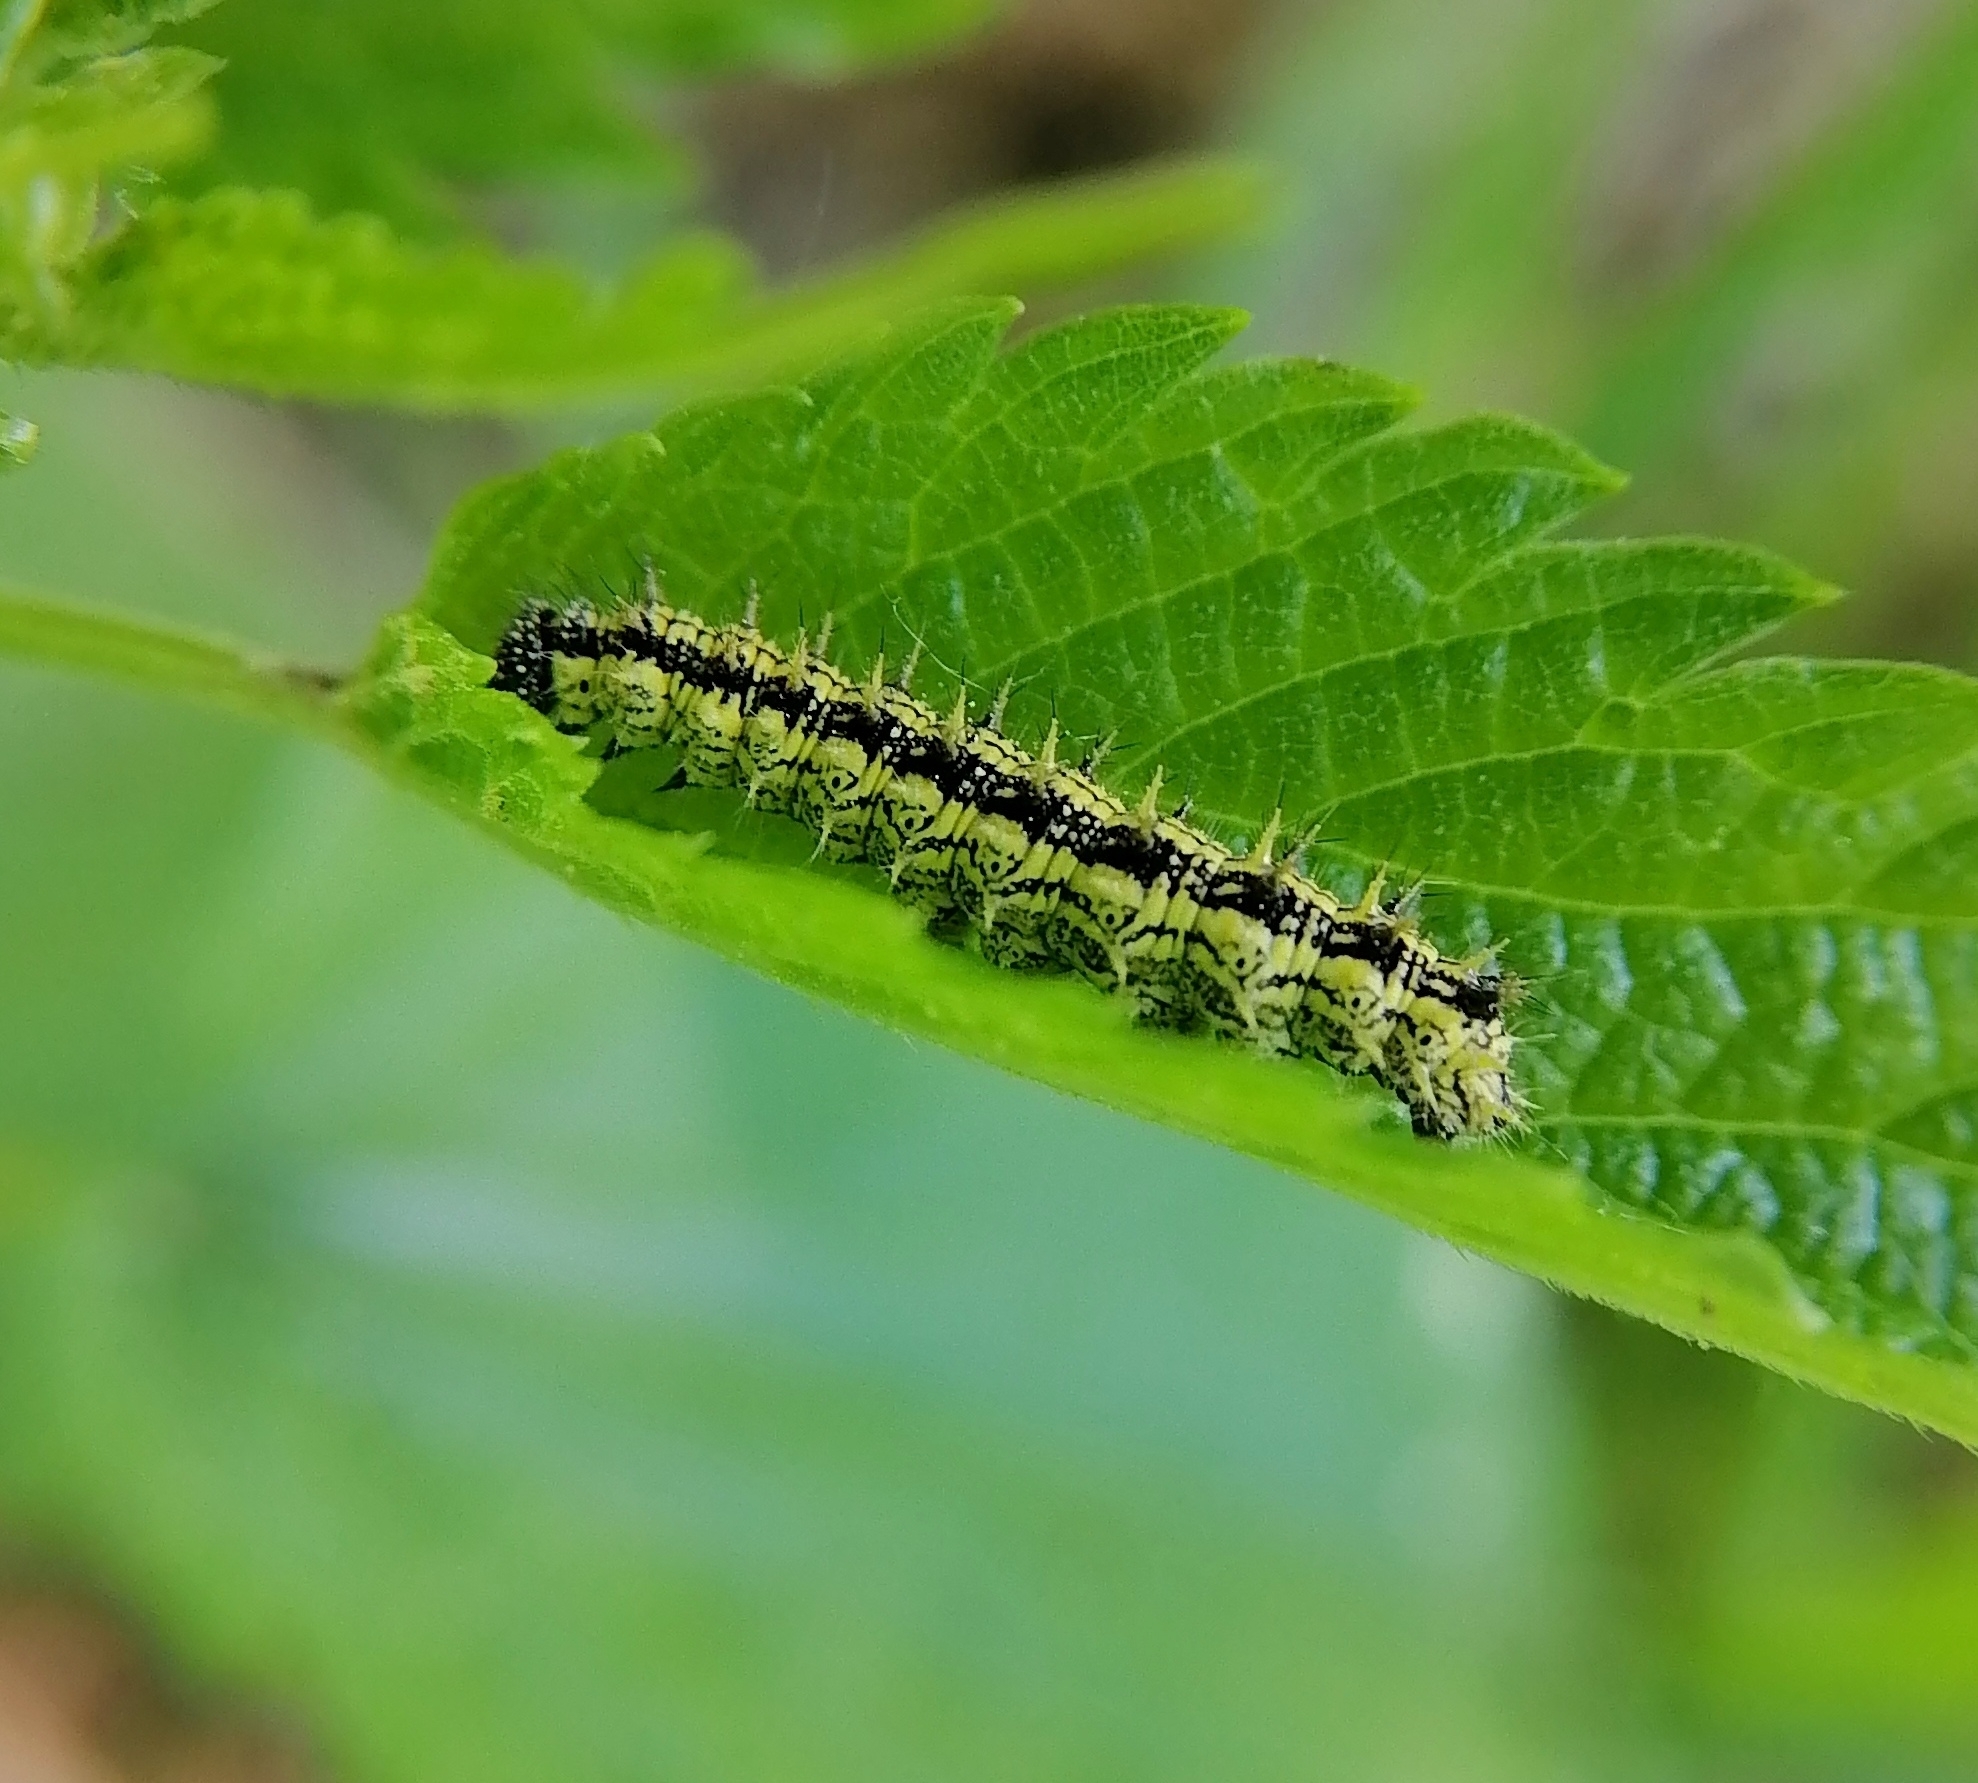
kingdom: Animalia
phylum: Arthropoda
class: Insecta
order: Lepidoptera
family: Nymphalidae
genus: Aglais
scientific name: Aglais urticae
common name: Small tortoiseshell
